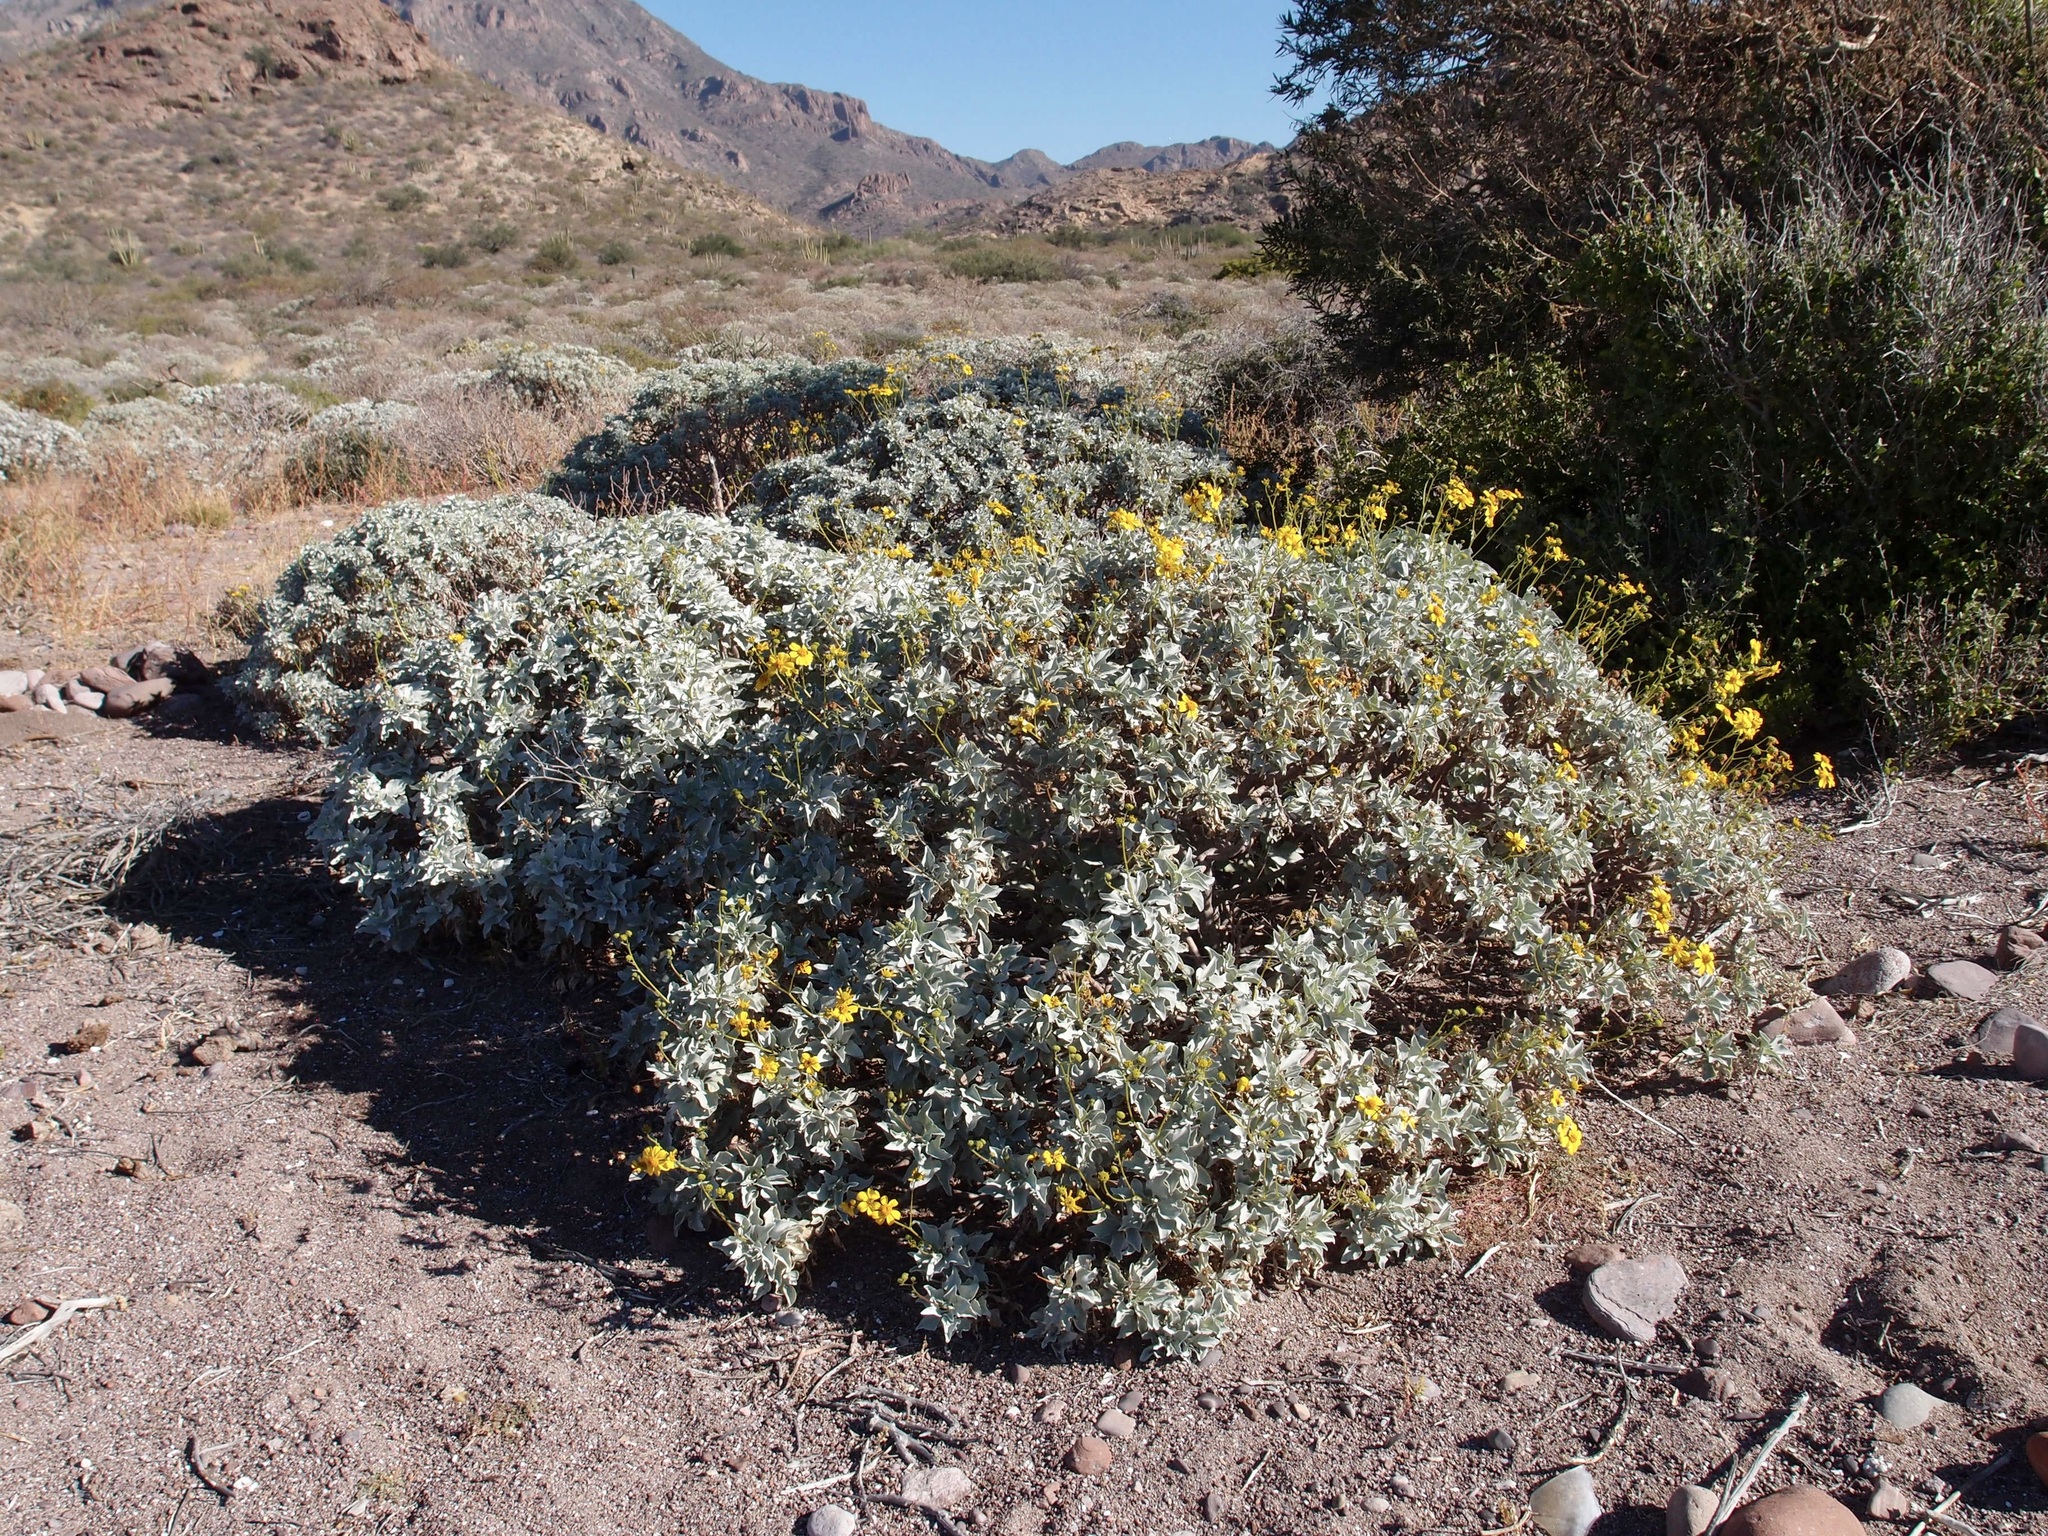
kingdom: Plantae
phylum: Tracheophyta
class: Magnoliopsida
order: Asterales
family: Asteraceae
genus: Encelia
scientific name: Encelia farinosa
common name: Brittlebush
